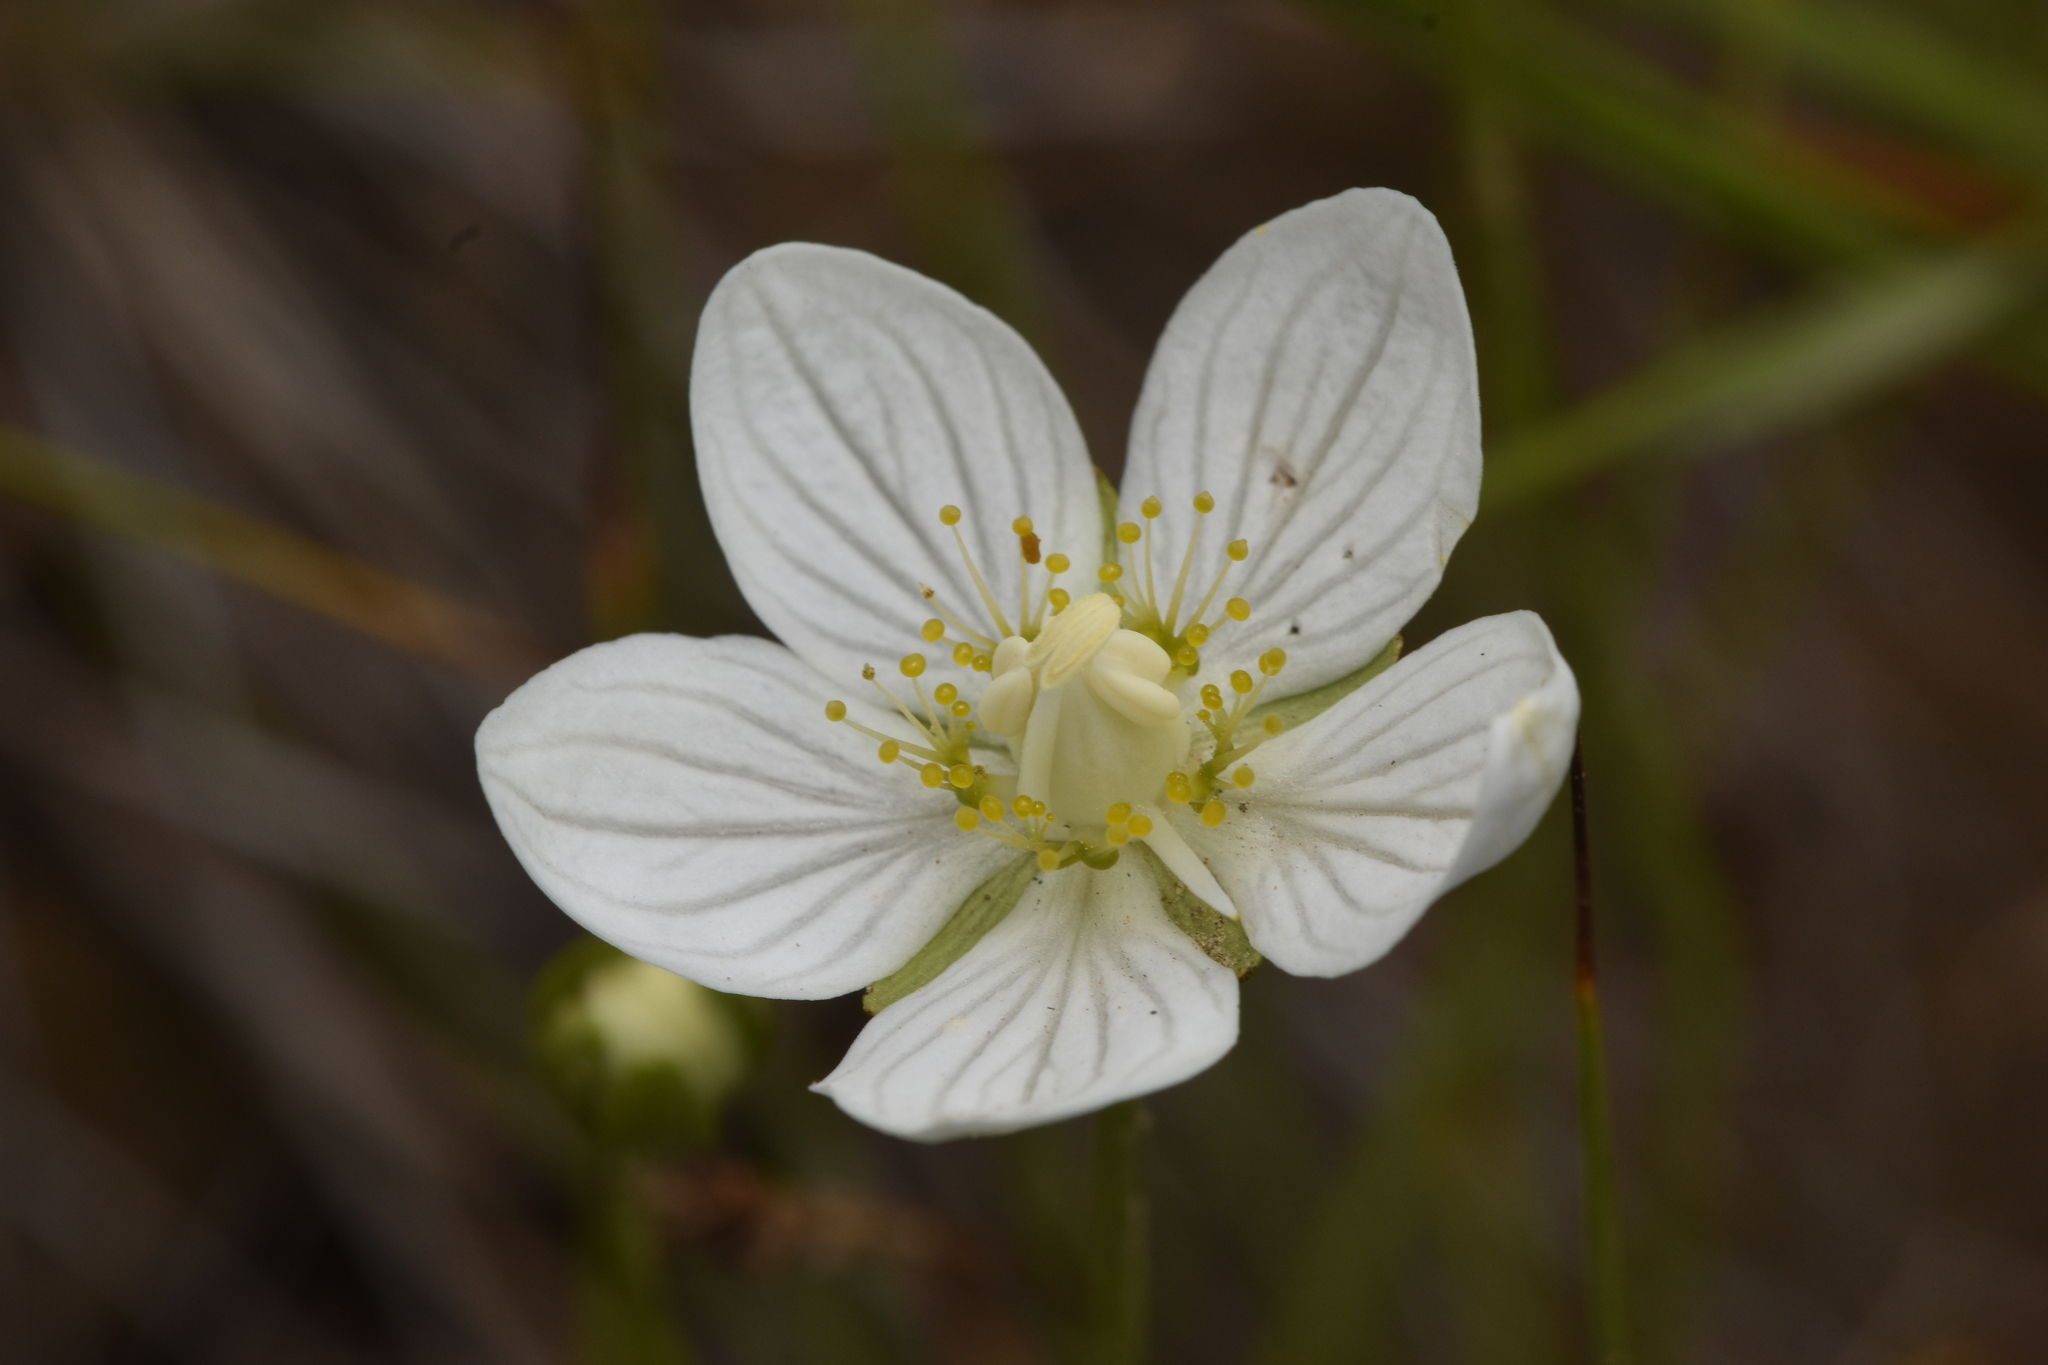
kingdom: Plantae
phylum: Tracheophyta
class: Magnoliopsida
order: Celastrales
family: Parnassiaceae
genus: Parnassia
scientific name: Parnassia palustris
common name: Grass-of-parnassus
